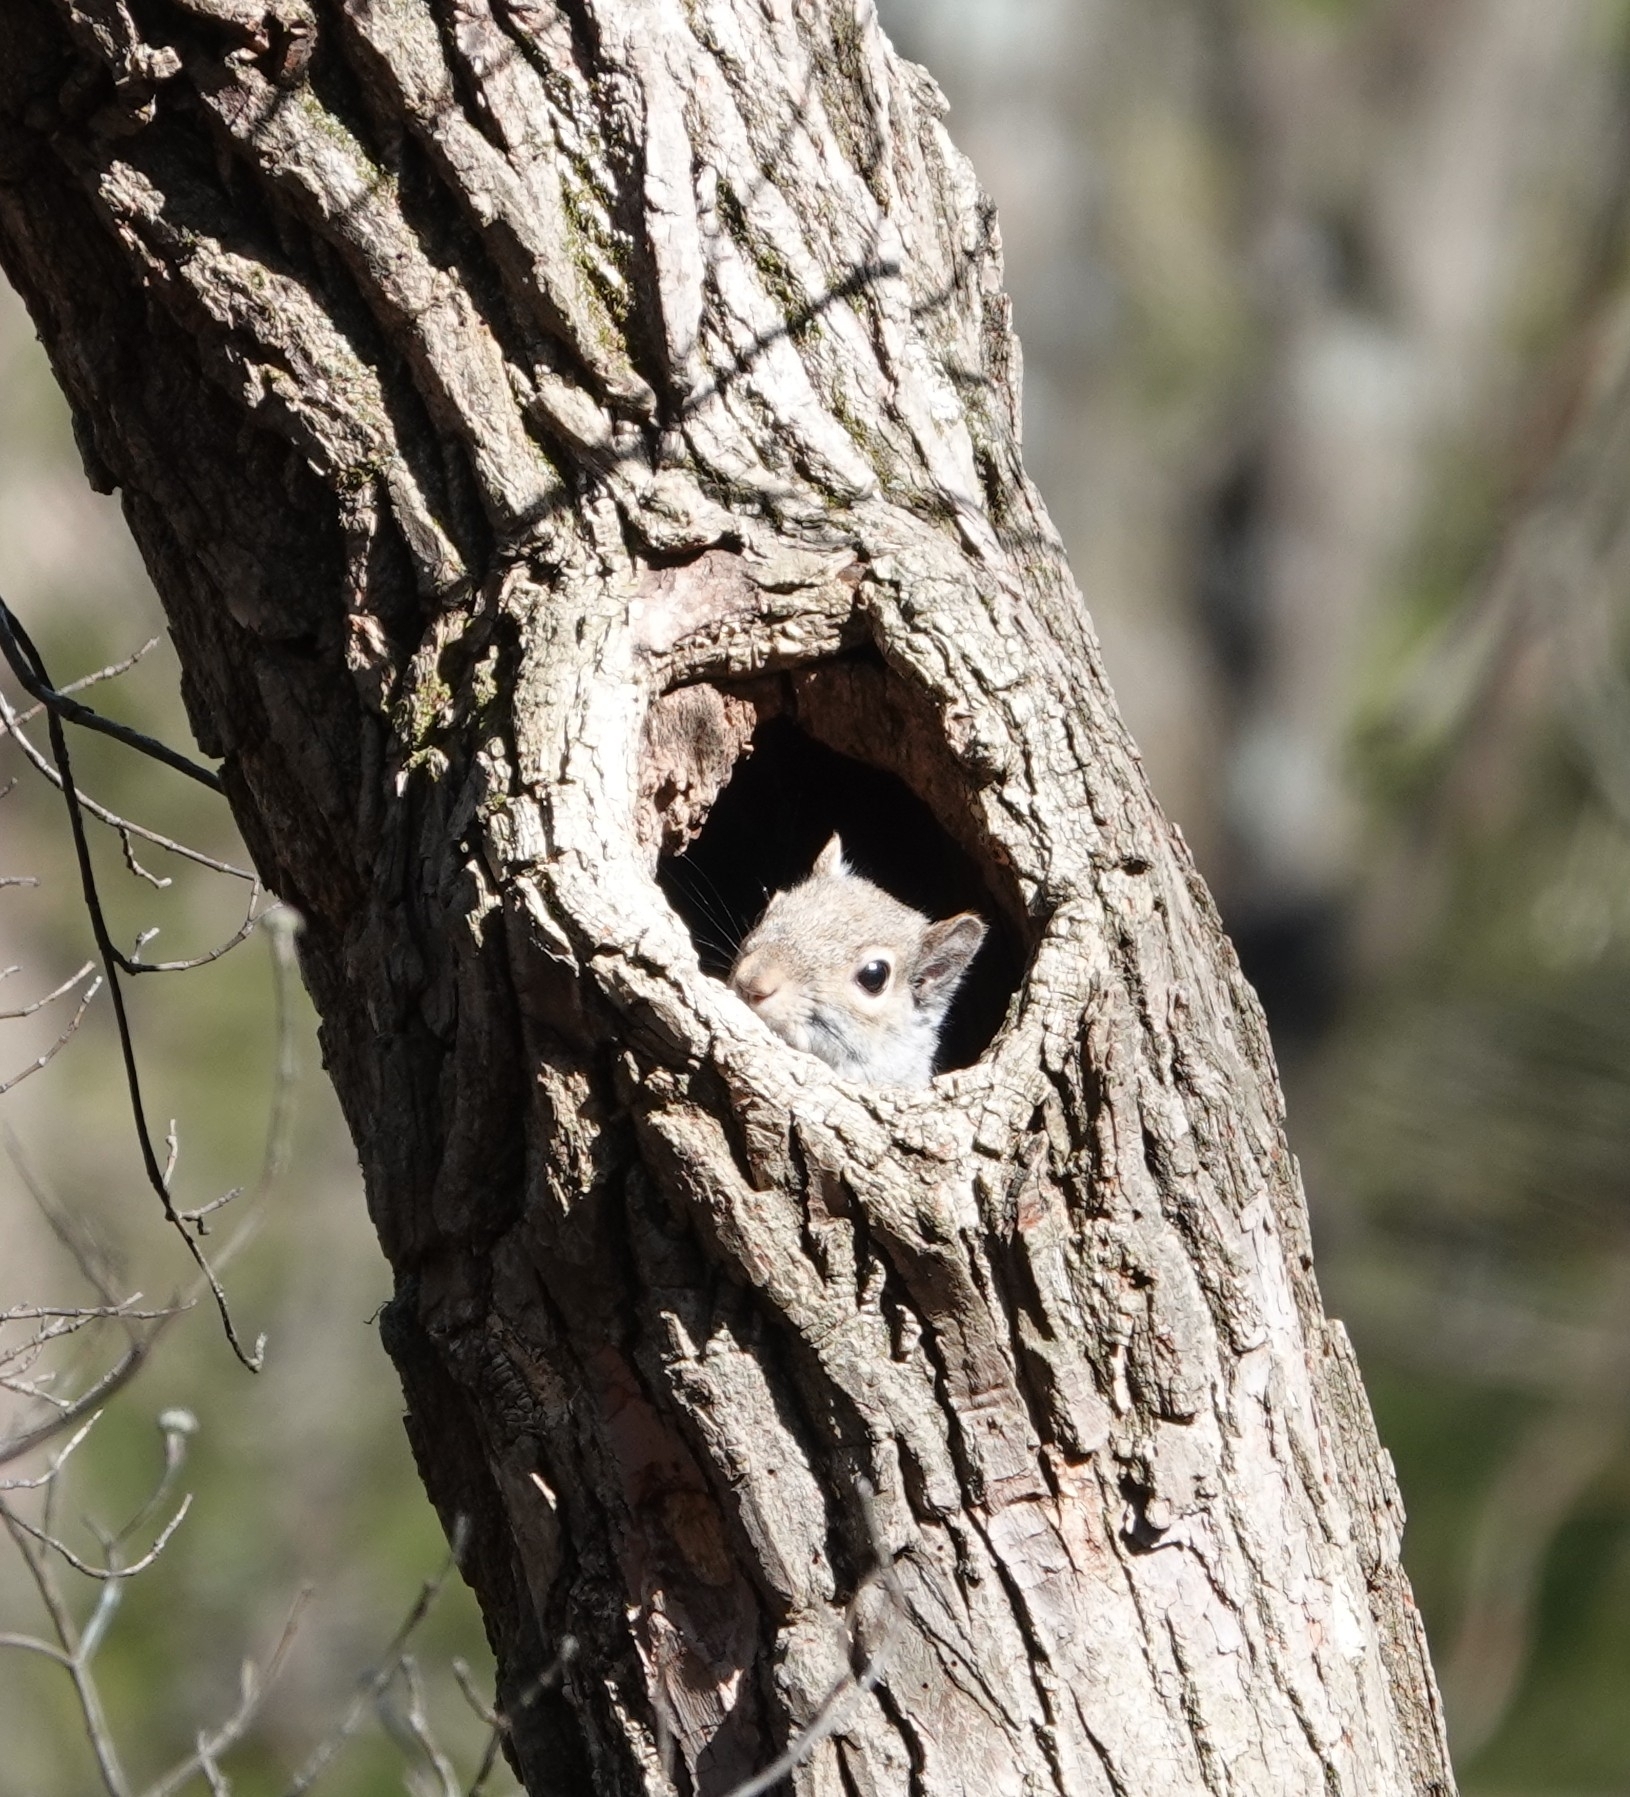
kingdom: Animalia
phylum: Chordata
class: Mammalia
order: Rodentia
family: Sciuridae
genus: Sciurus
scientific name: Sciurus carolinensis
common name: Eastern gray squirrel
